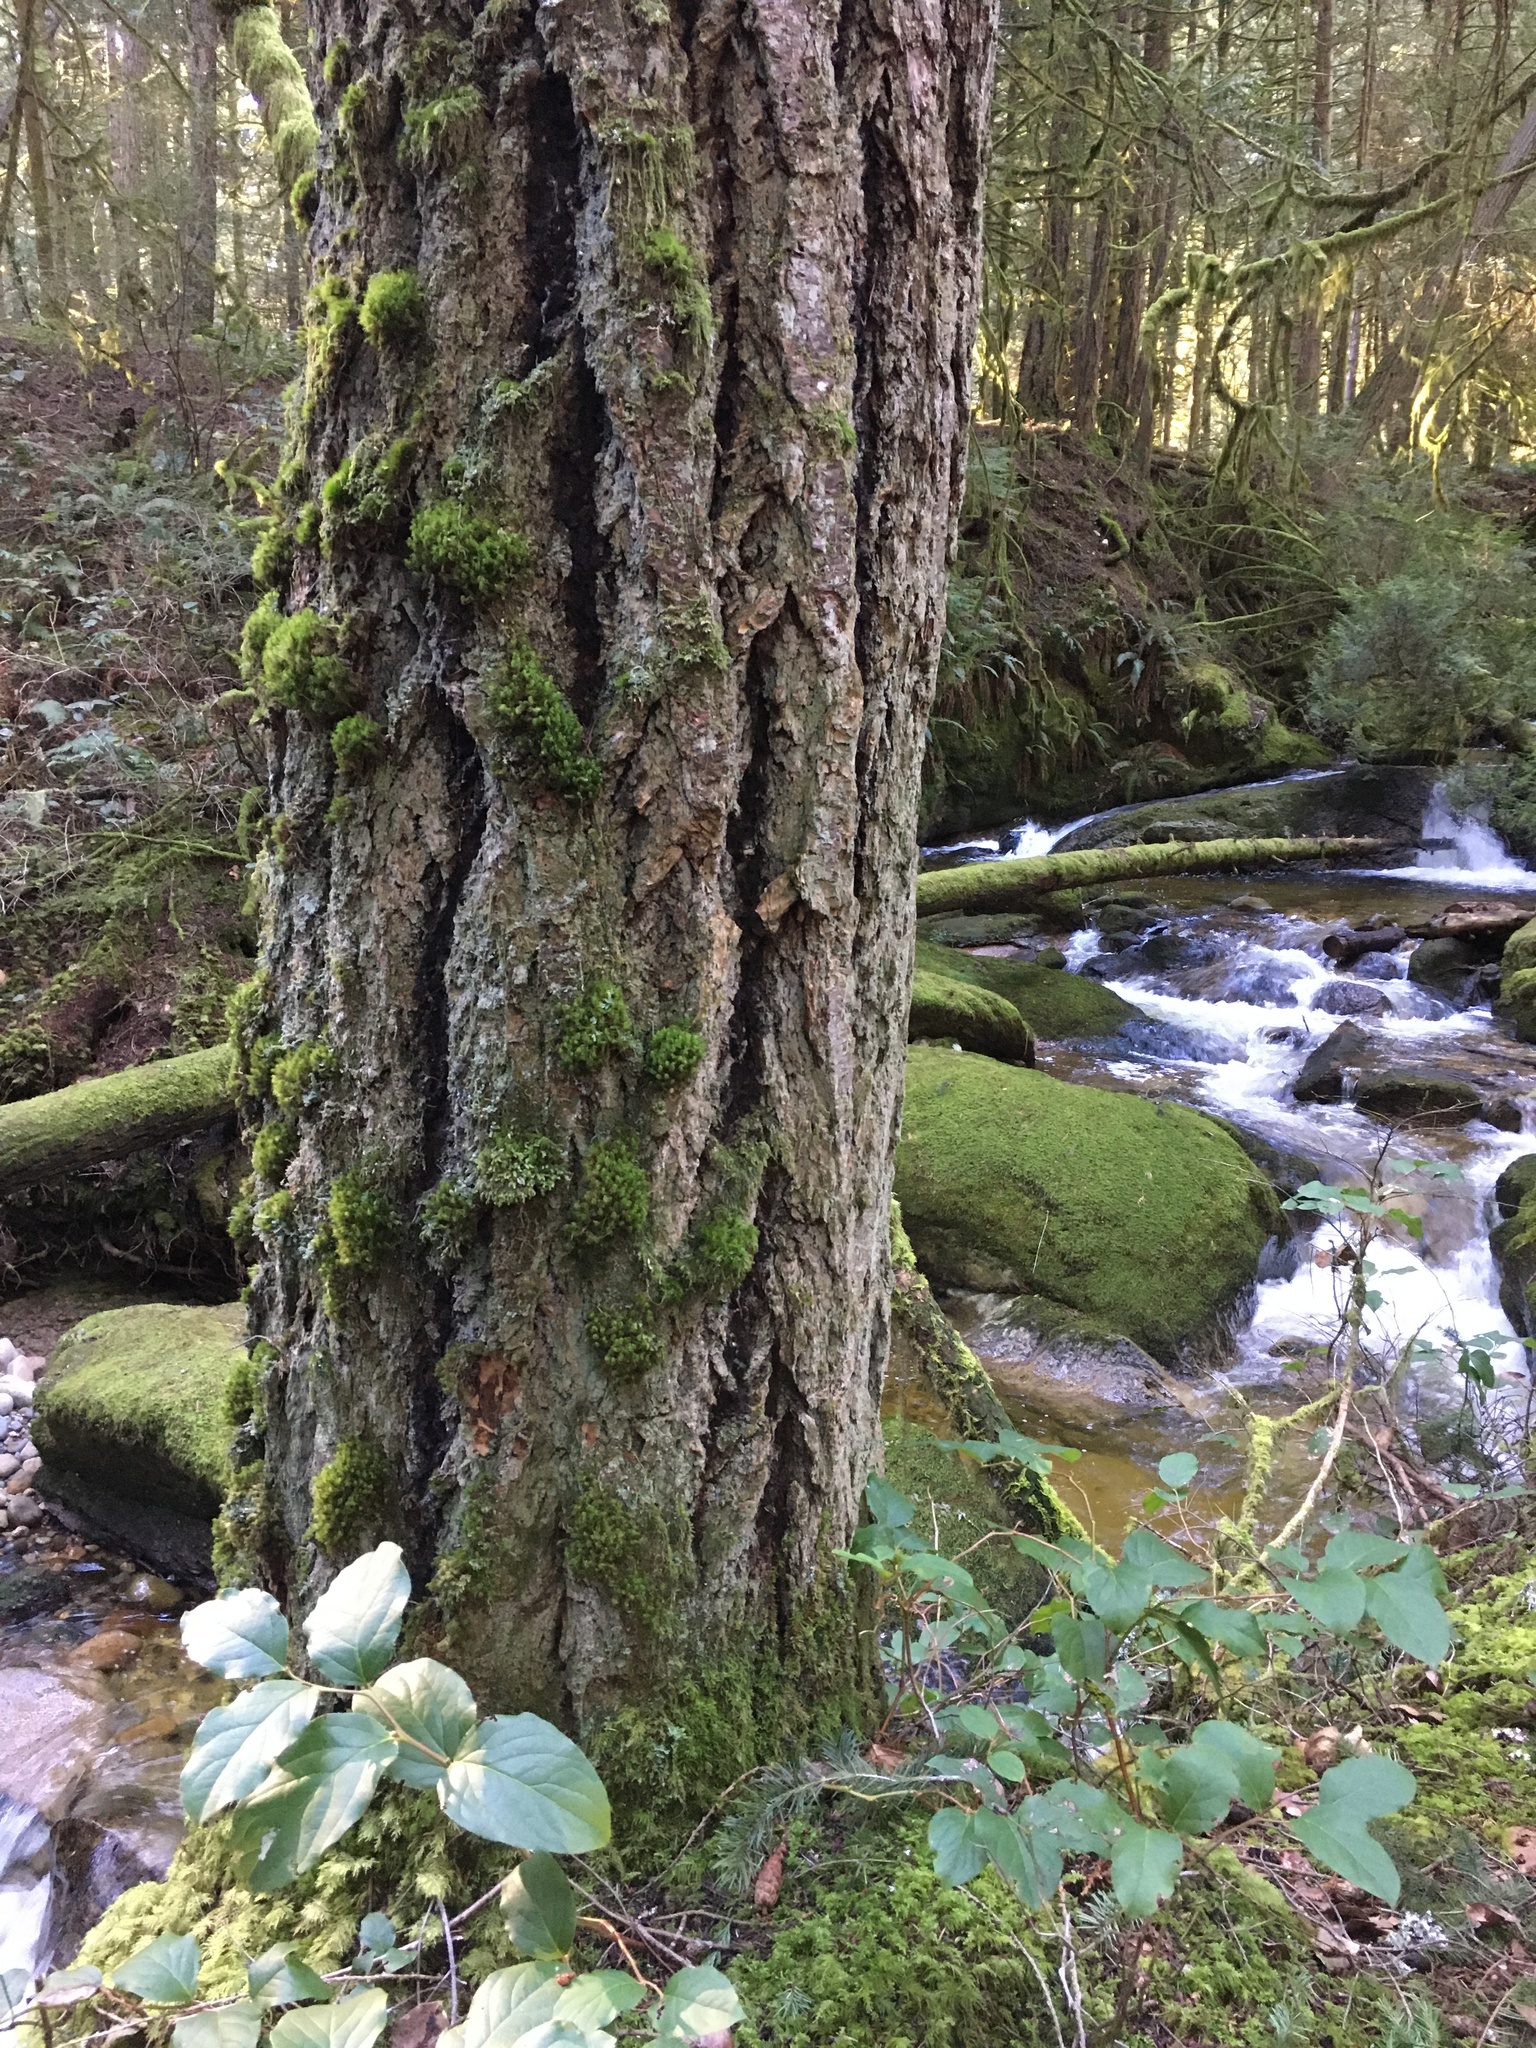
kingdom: Plantae
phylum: Tracheophyta
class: Pinopsida
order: Pinales
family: Pinaceae
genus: Pseudotsuga
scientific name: Pseudotsuga menziesii
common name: Douglas fir
